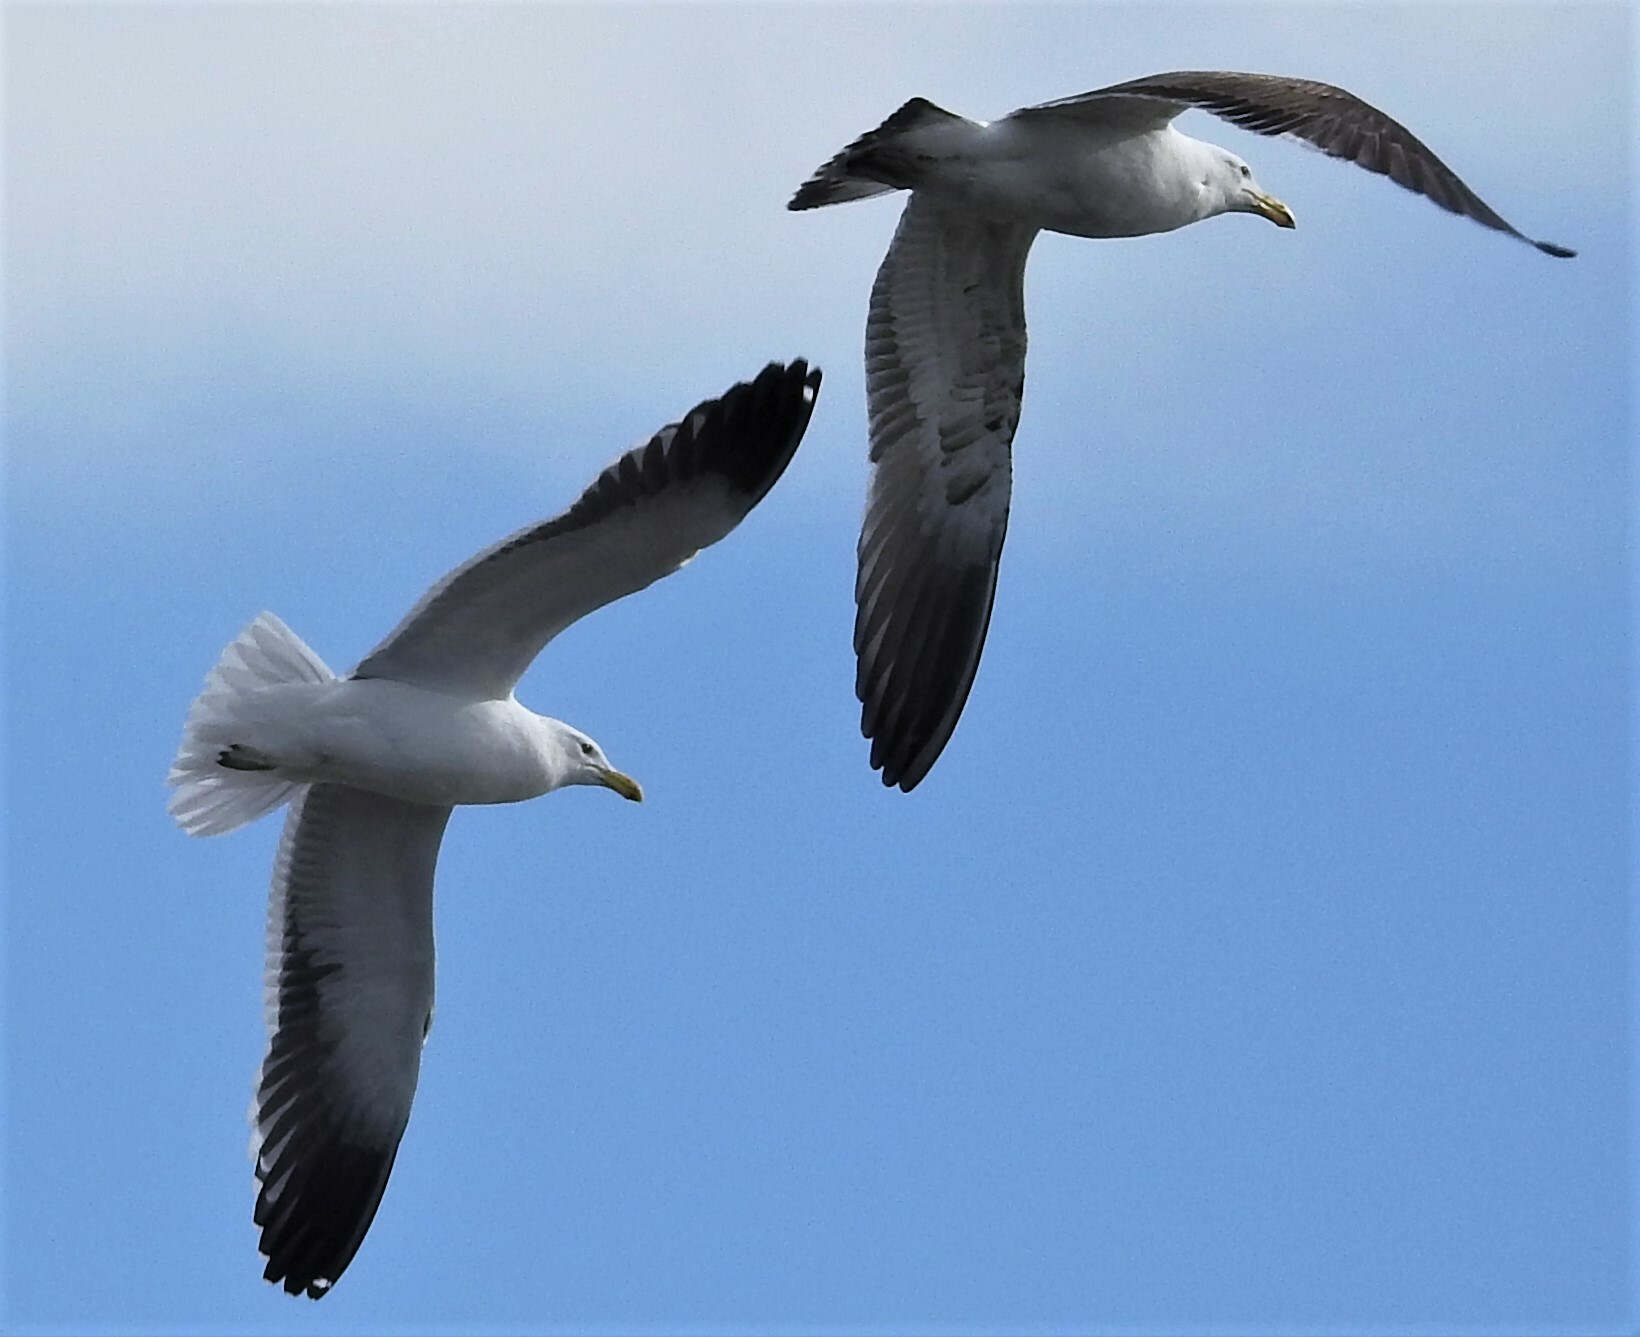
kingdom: Animalia
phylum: Chordata
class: Aves
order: Charadriiformes
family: Laridae
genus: Larus
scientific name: Larus dominicanus
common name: Kelp gull
